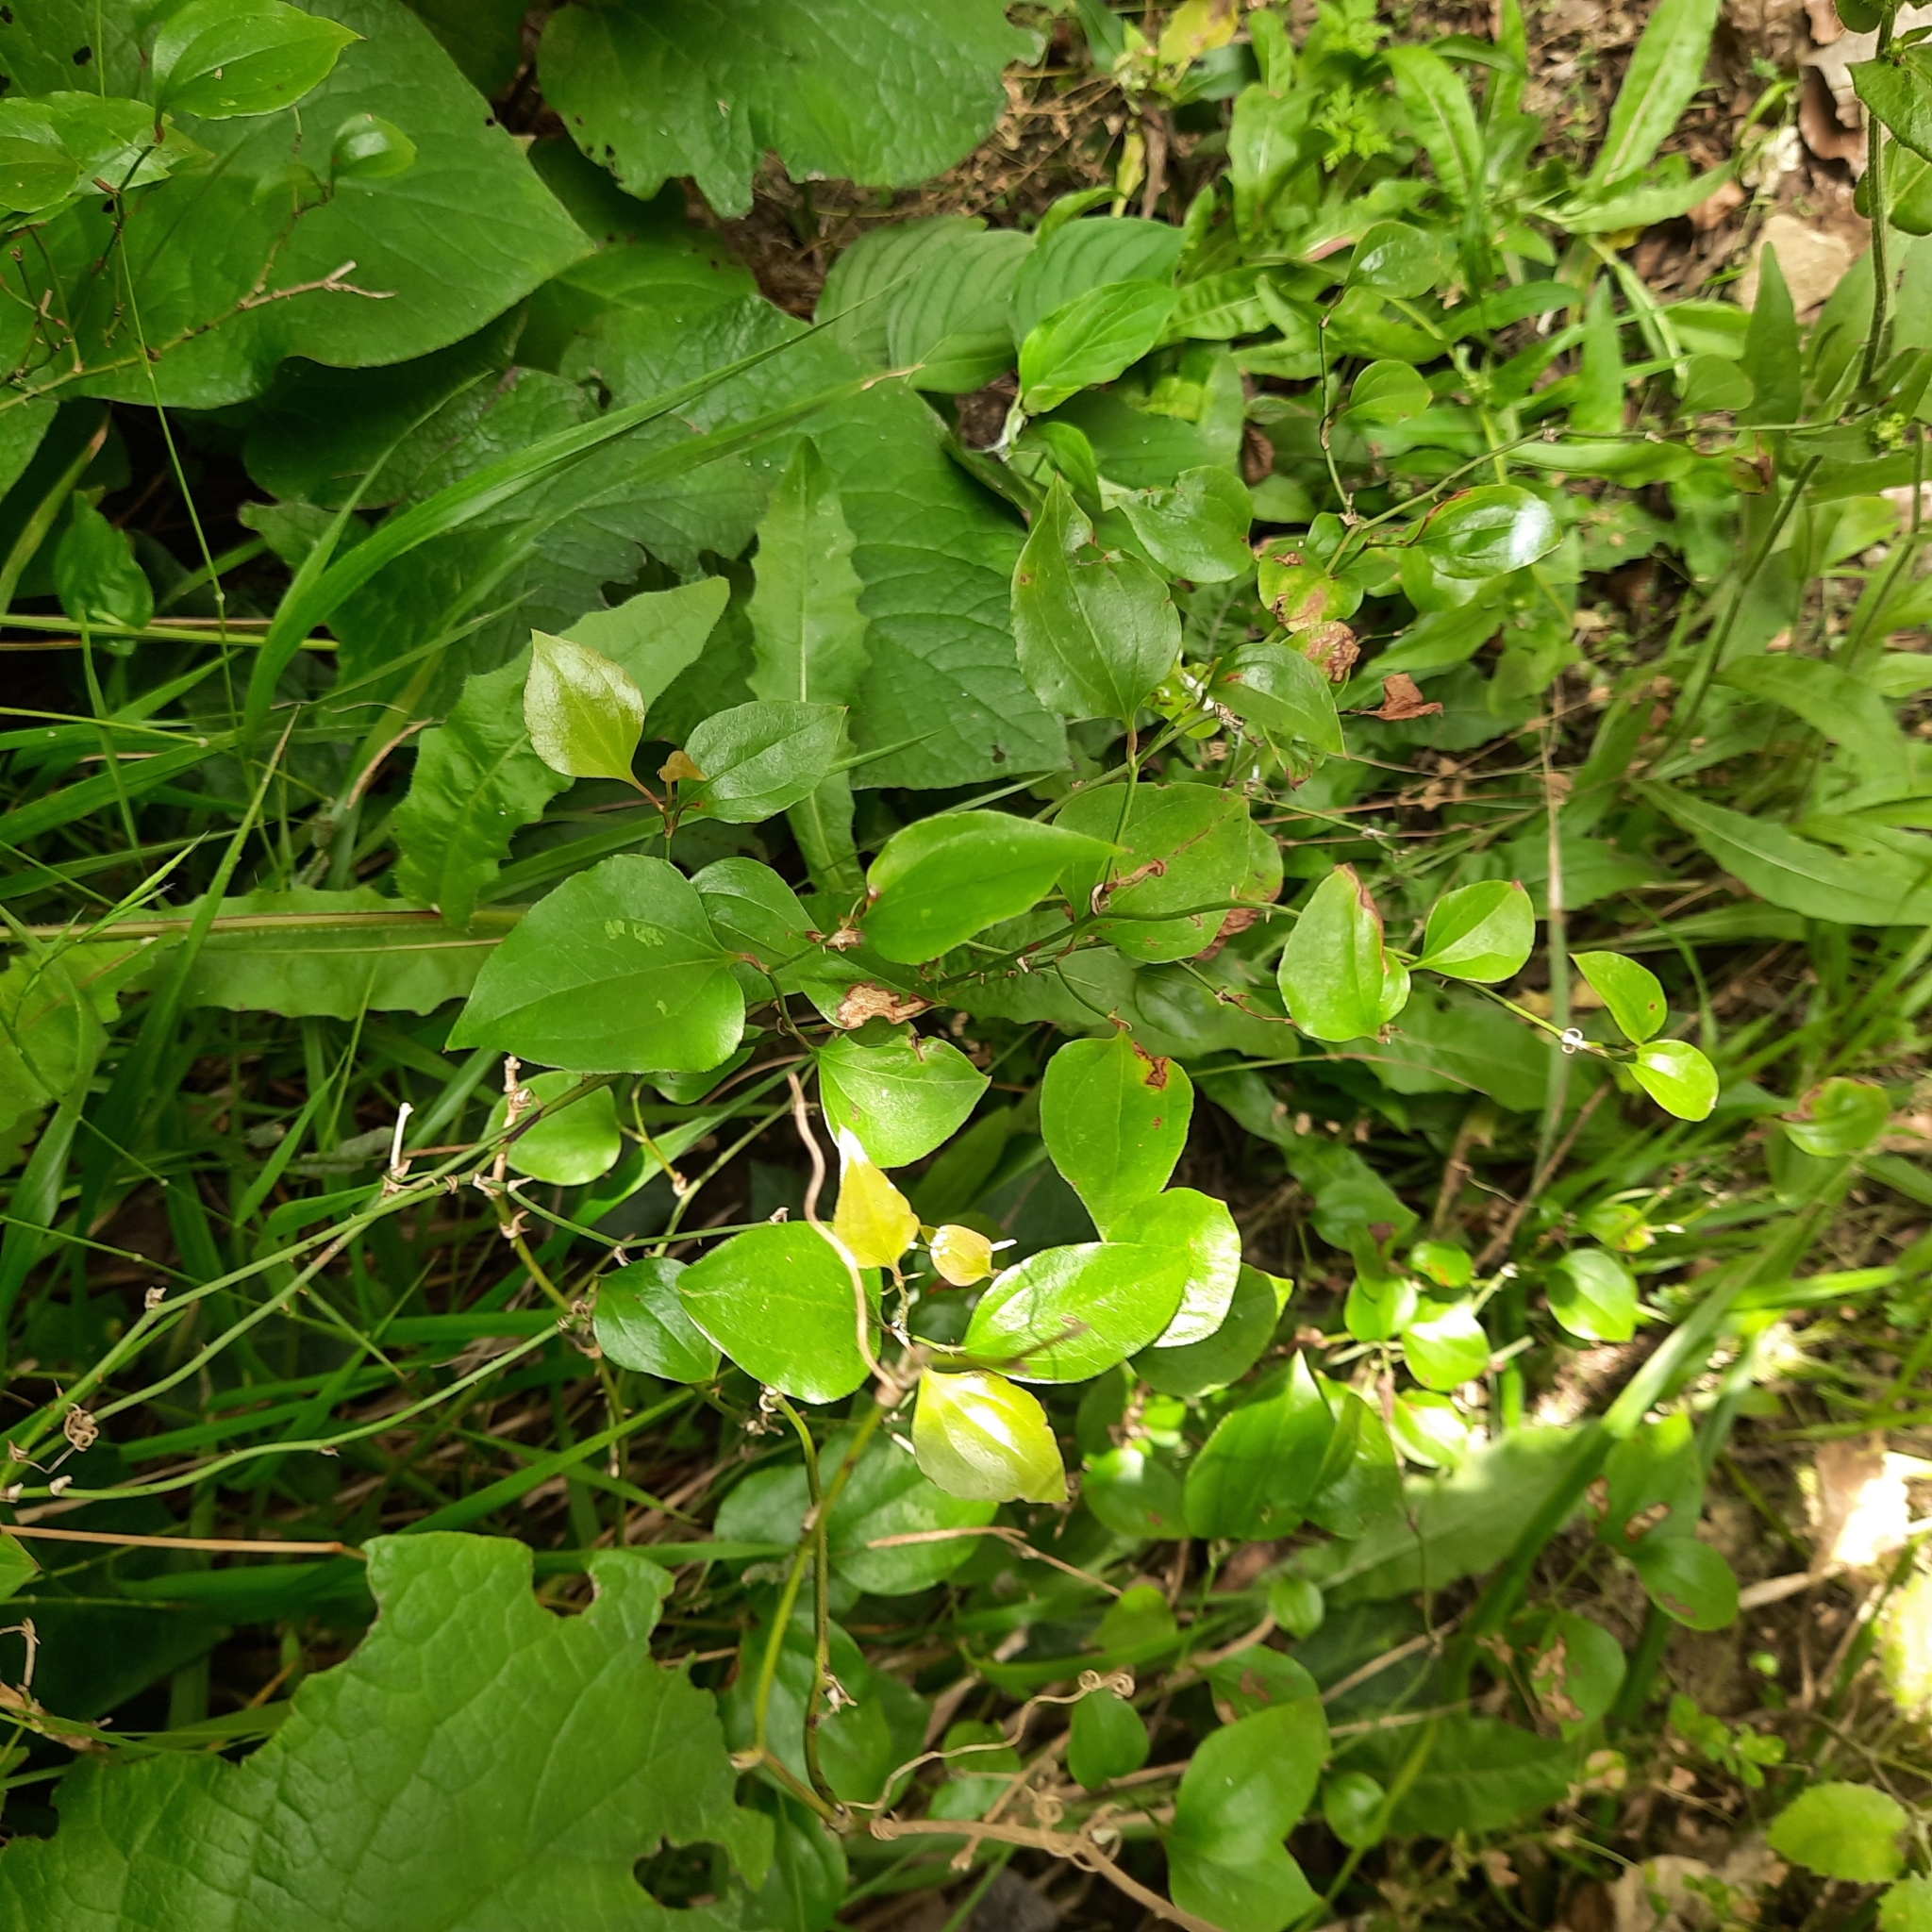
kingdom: Plantae
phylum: Tracheophyta
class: Liliopsida
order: Liliales
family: Smilacaceae
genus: Smilax
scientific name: Smilax excelsa
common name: Larger smilax
